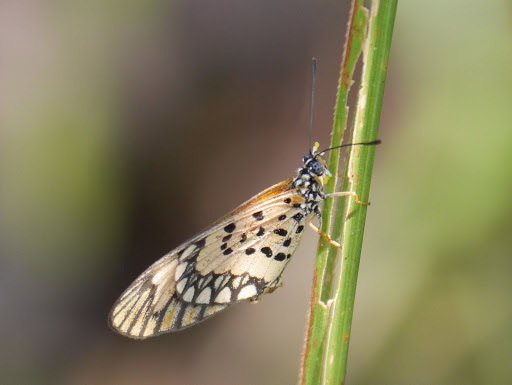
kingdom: Animalia
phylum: Arthropoda
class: Insecta
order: Lepidoptera
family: Nymphalidae
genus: Acraea
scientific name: Acraea Telchinia serena
